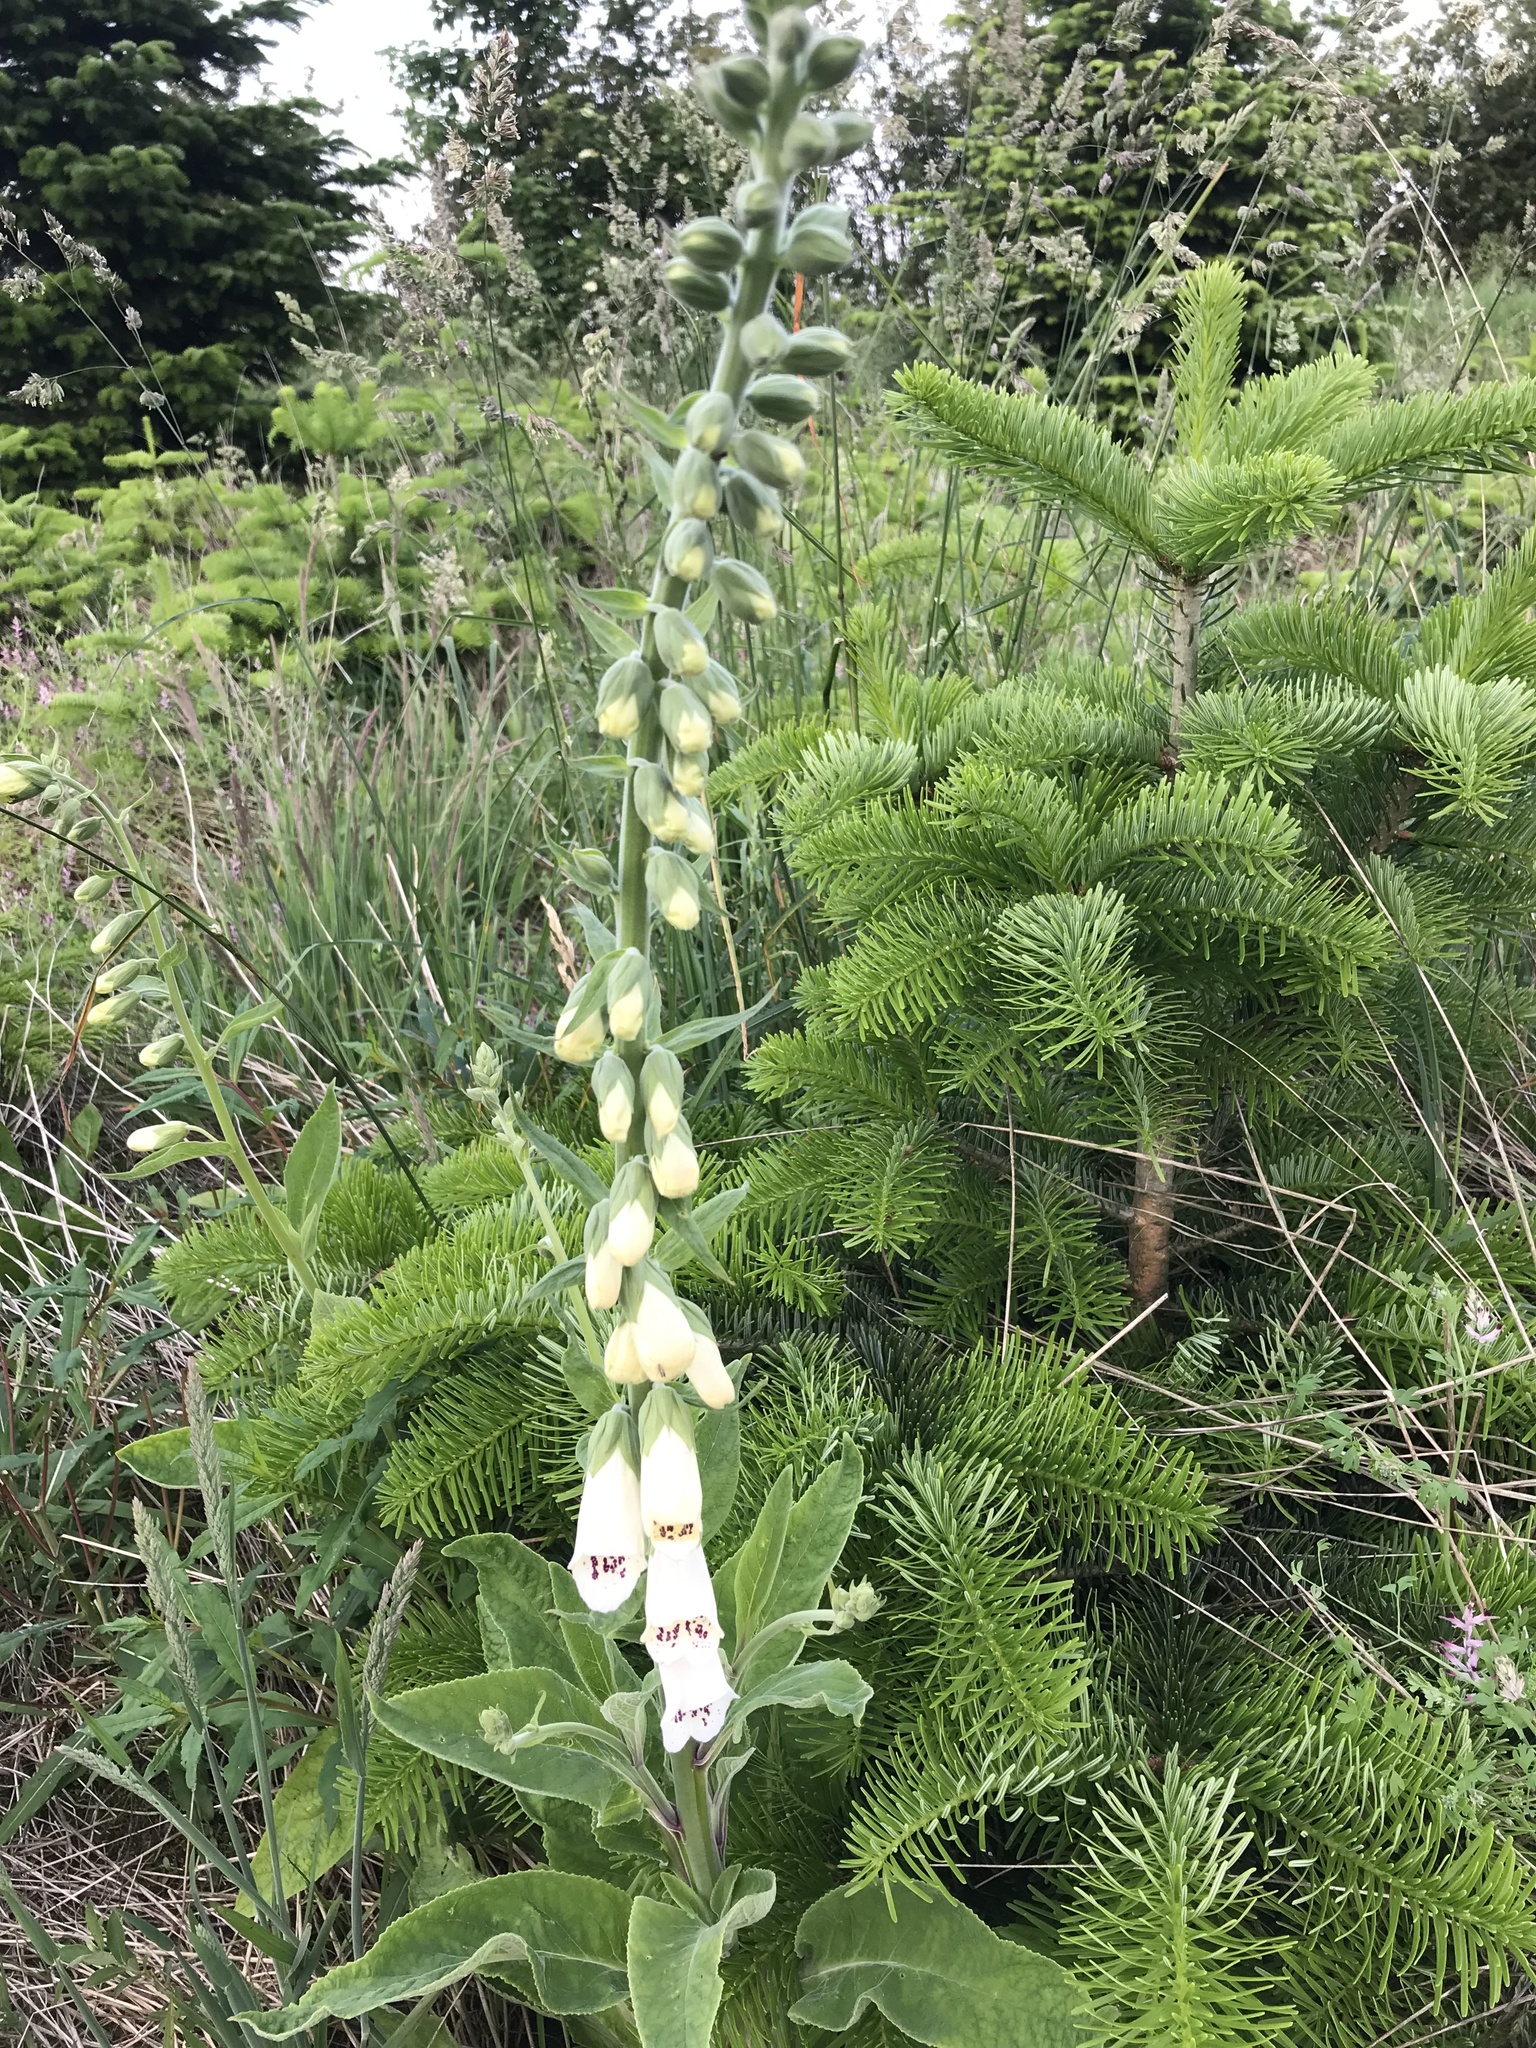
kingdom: Plantae
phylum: Tracheophyta
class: Magnoliopsida
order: Lamiales
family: Plantaginaceae
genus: Digitalis
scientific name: Digitalis purpurea
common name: Foxglove
